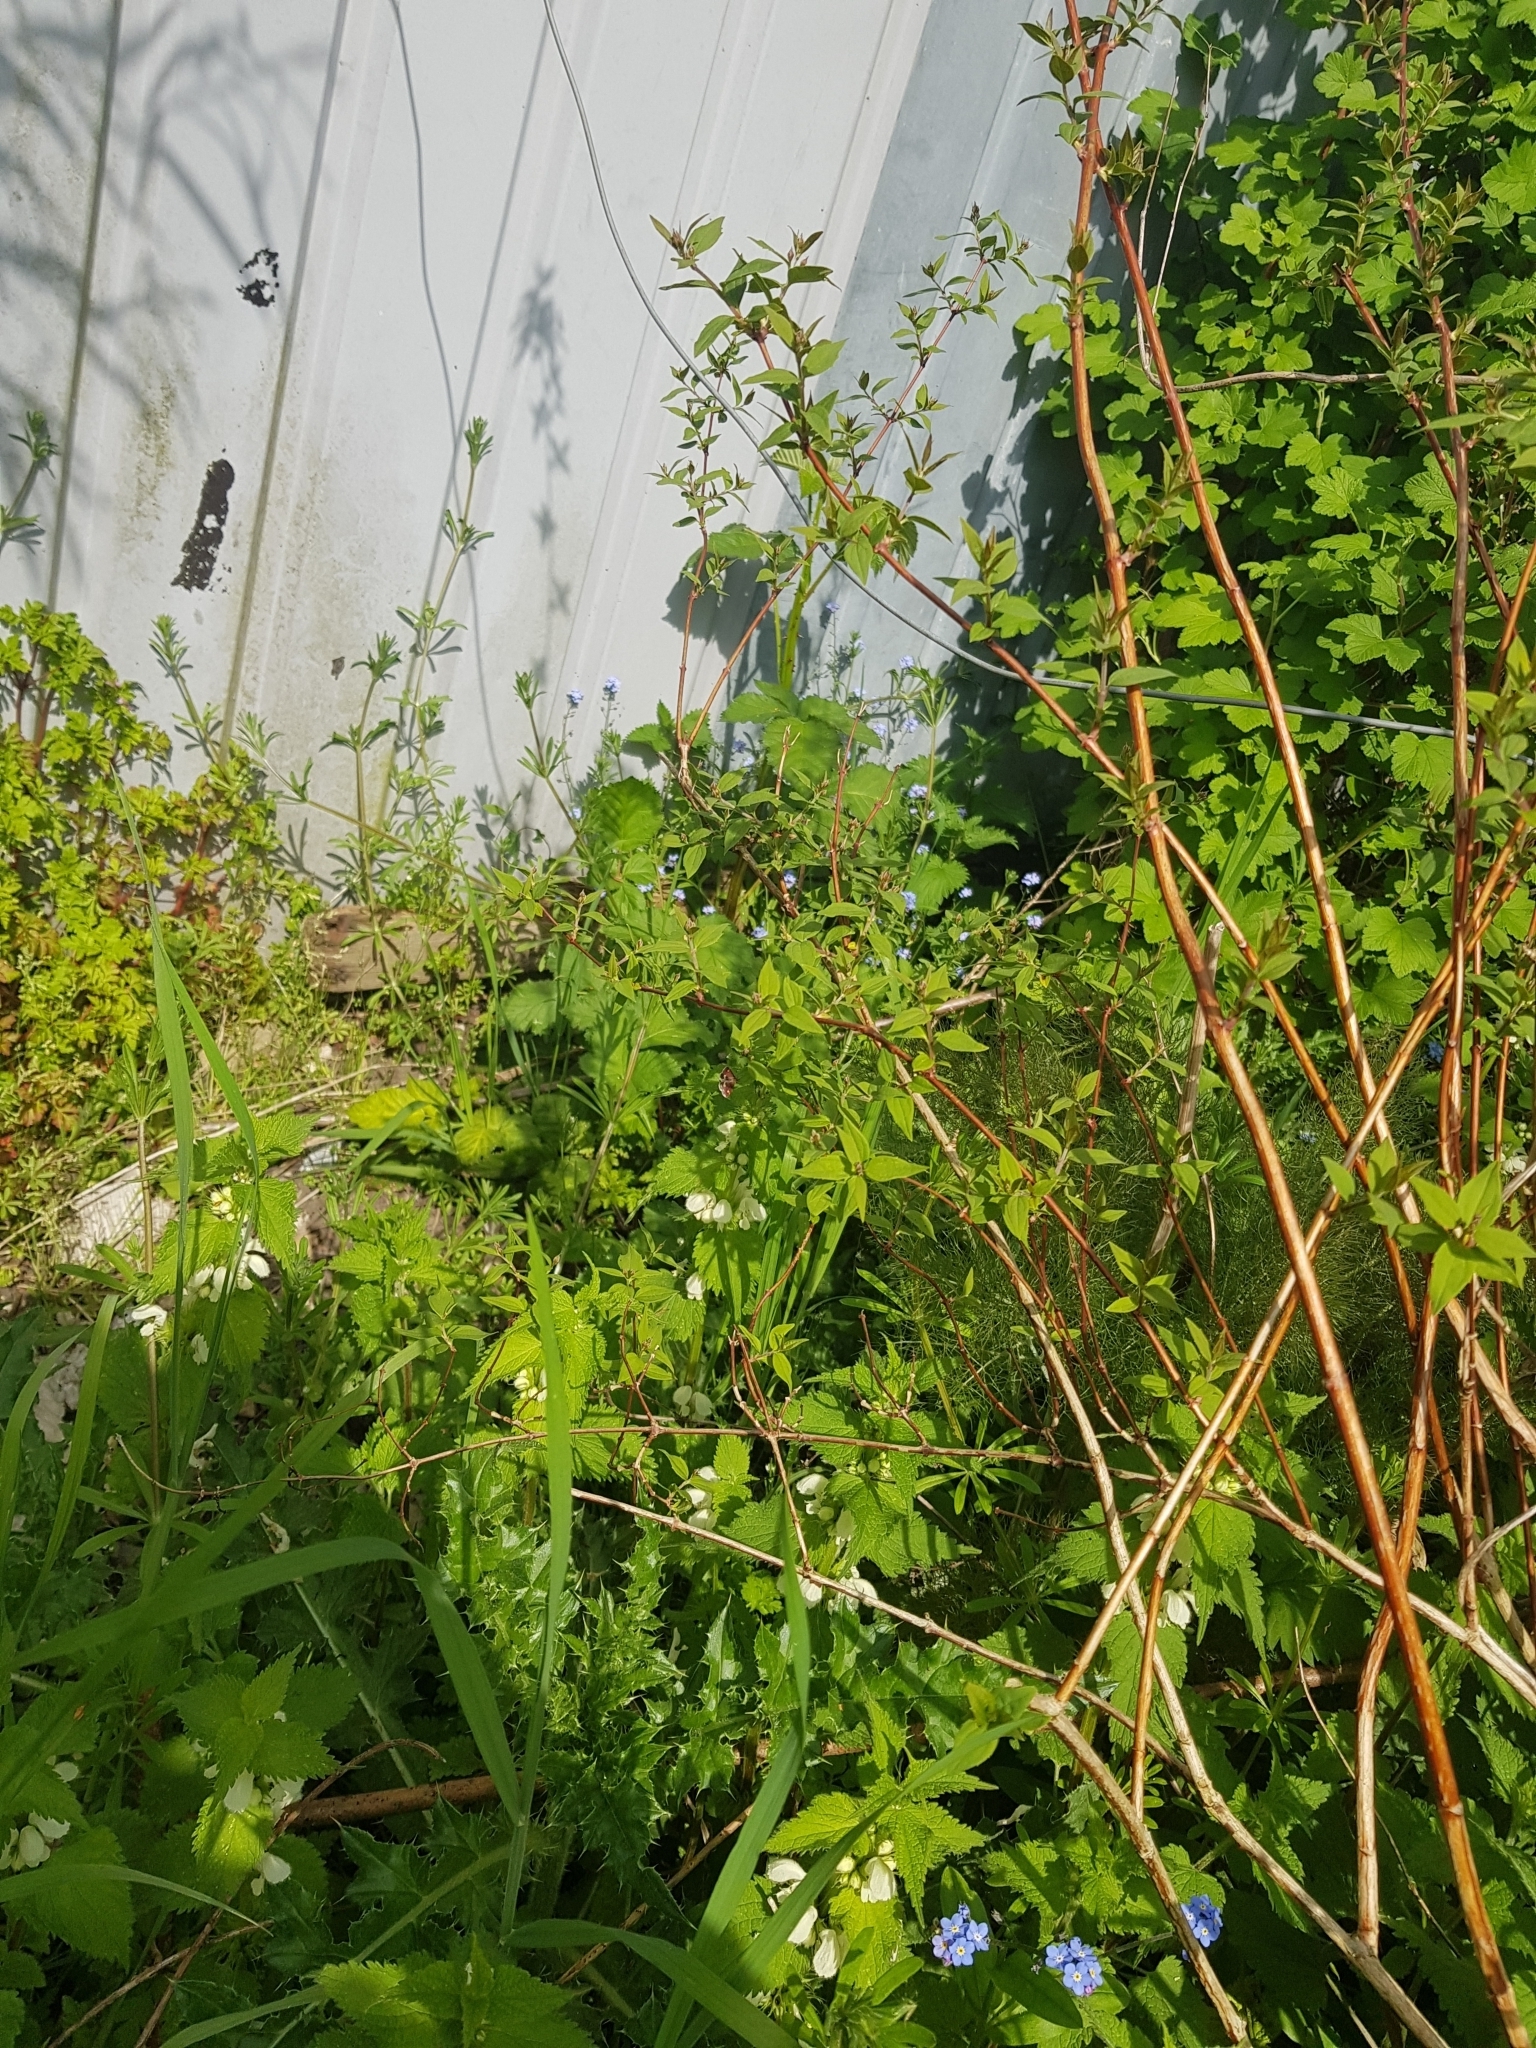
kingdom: Plantae
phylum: Tracheophyta
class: Magnoliopsida
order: Lamiales
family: Lamiaceae
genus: Lamium
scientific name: Lamium album
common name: White dead-nettle
